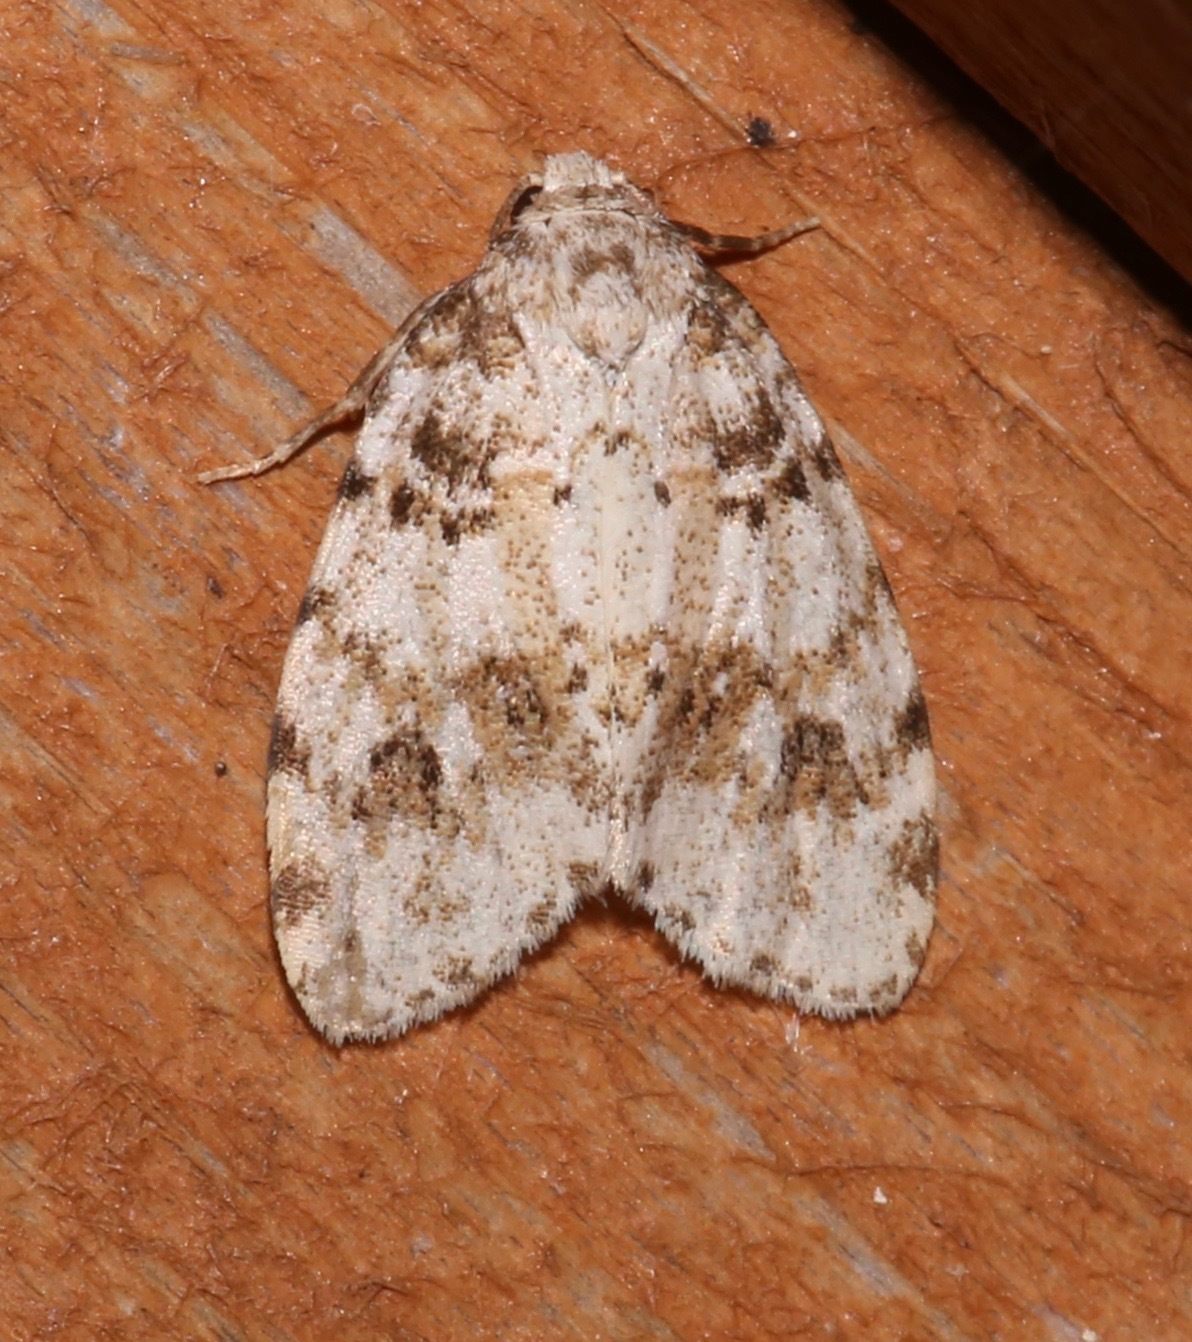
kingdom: Animalia
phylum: Arthropoda
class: Insecta
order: Lepidoptera
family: Erebidae
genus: Clemensia
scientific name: Clemensia ochreata
